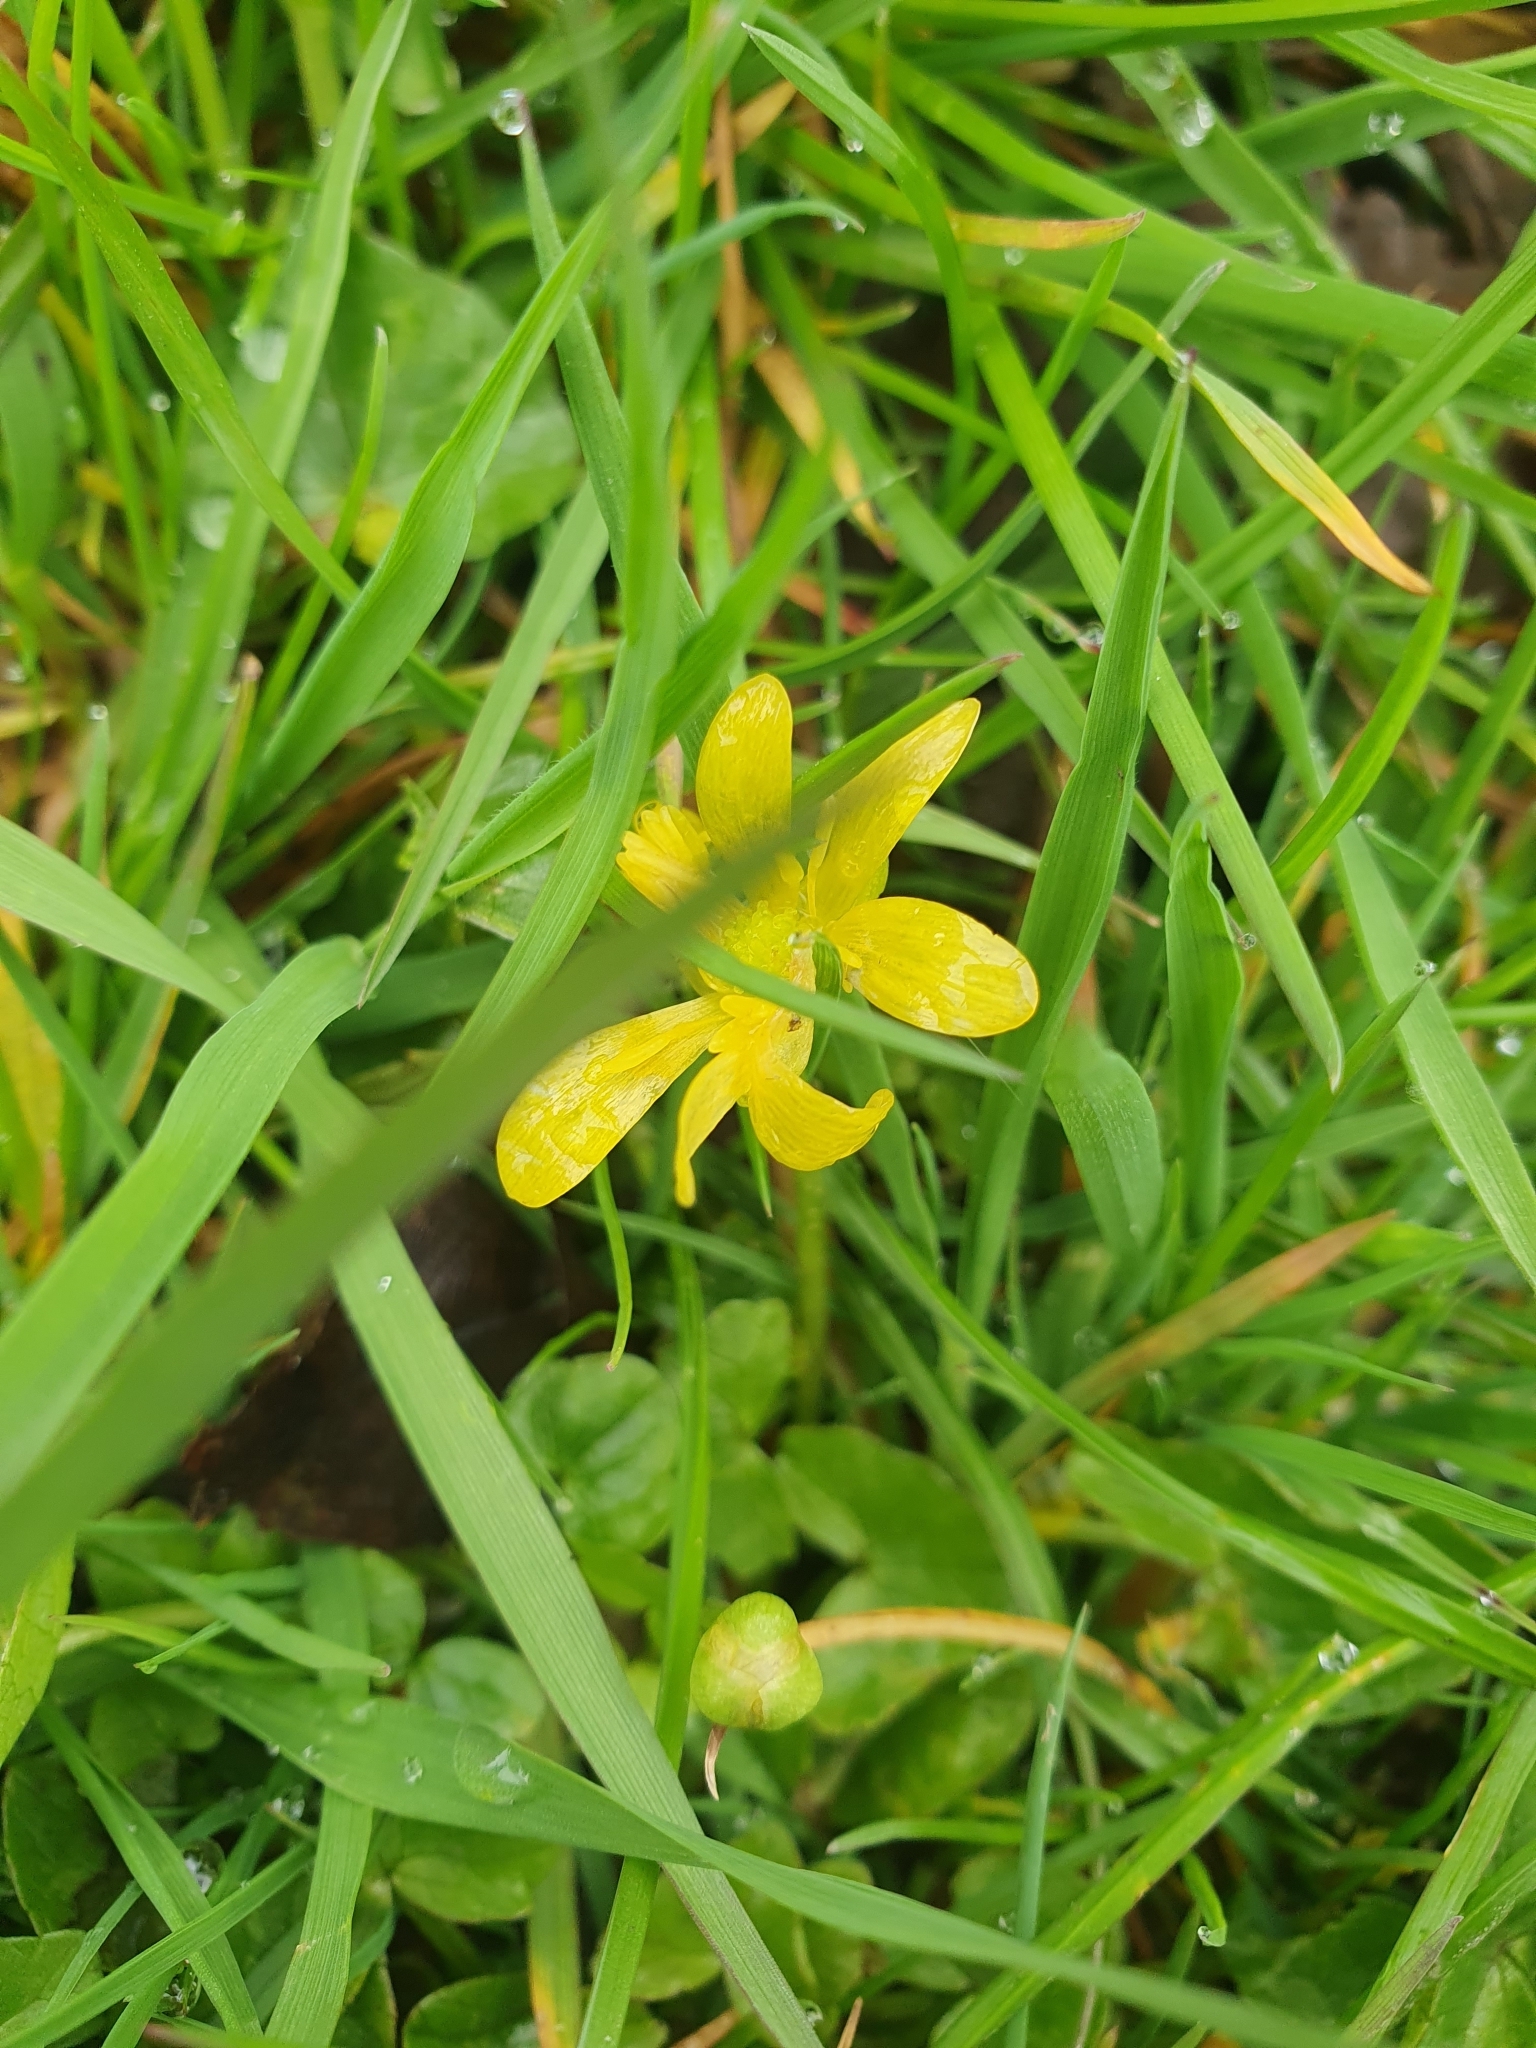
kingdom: Plantae
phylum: Tracheophyta
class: Magnoliopsida
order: Ranunculales
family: Ranunculaceae
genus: Ficaria
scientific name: Ficaria verna
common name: Lesser celandine
